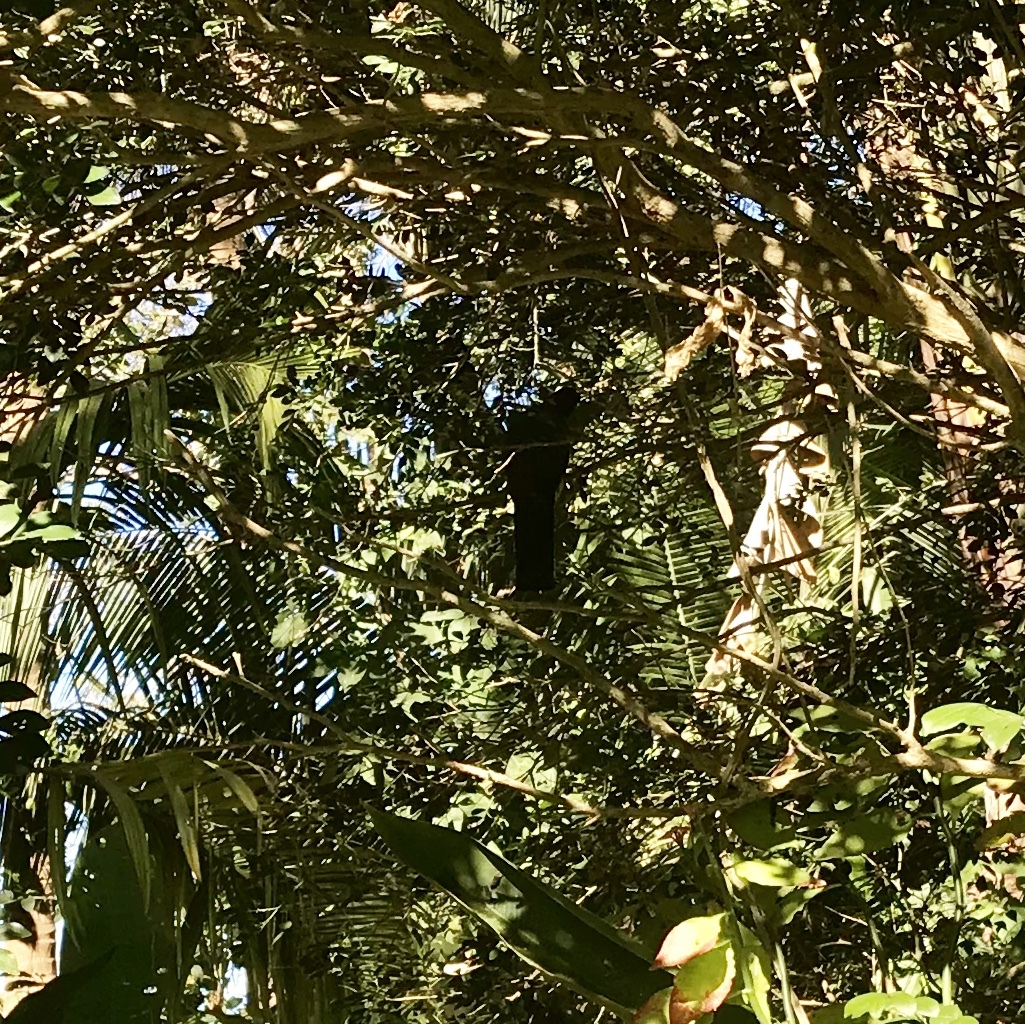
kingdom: Animalia
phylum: Chordata
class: Aves
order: Trogoniformes
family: Trogonidae
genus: Trogon
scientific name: Trogon citreolus
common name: Citreoline trogon
